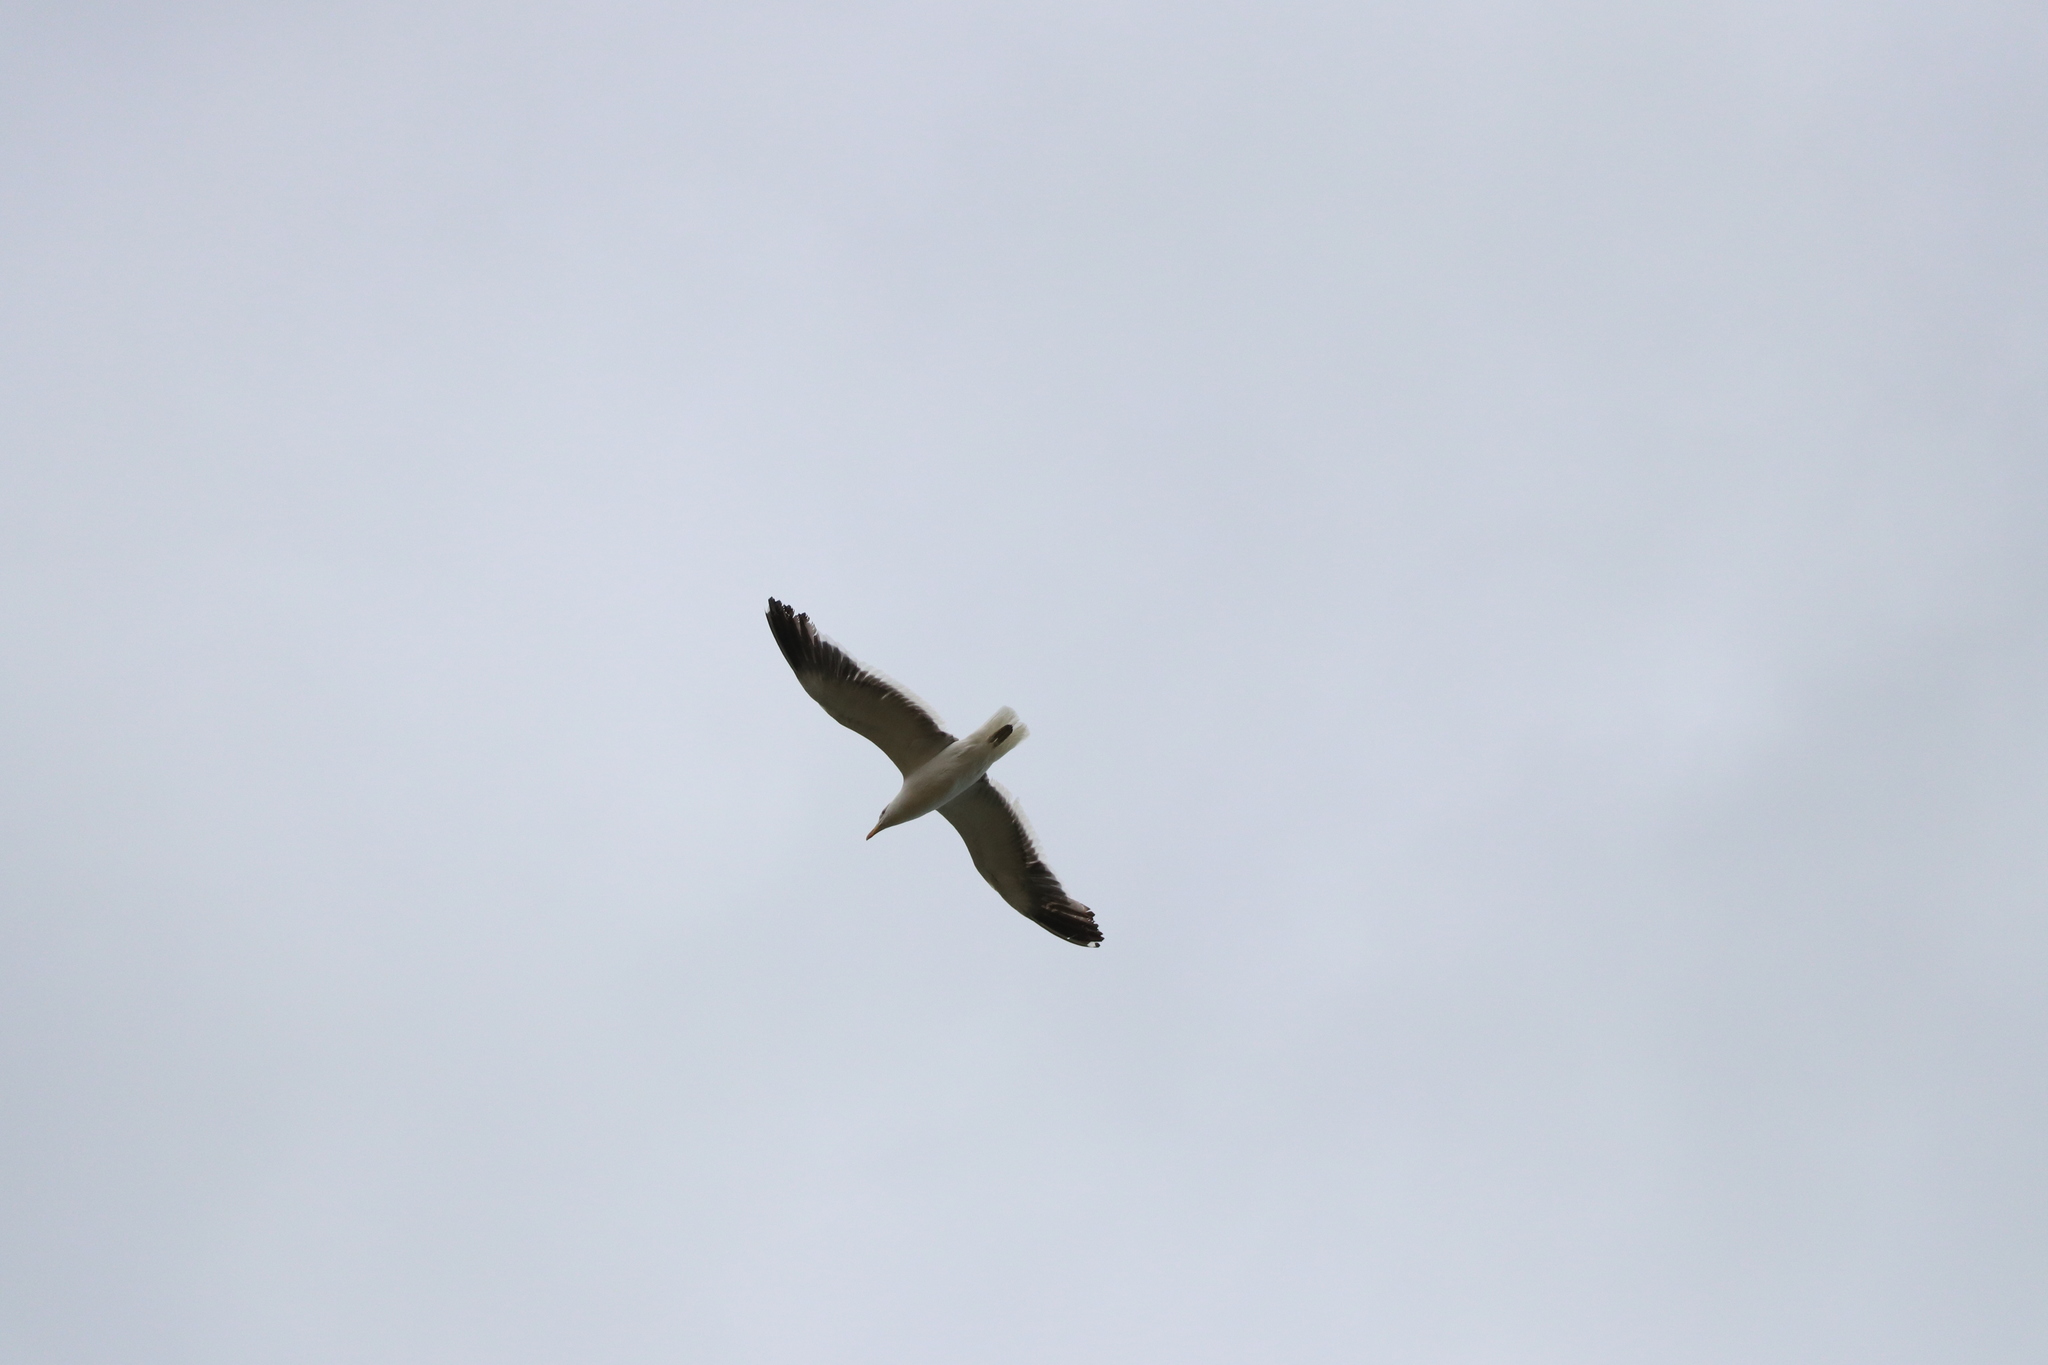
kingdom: Animalia
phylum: Chordata
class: Aves
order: Charadriiformes
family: Laridae
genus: Larus
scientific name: Larus dominicanus
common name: Kelp gull
